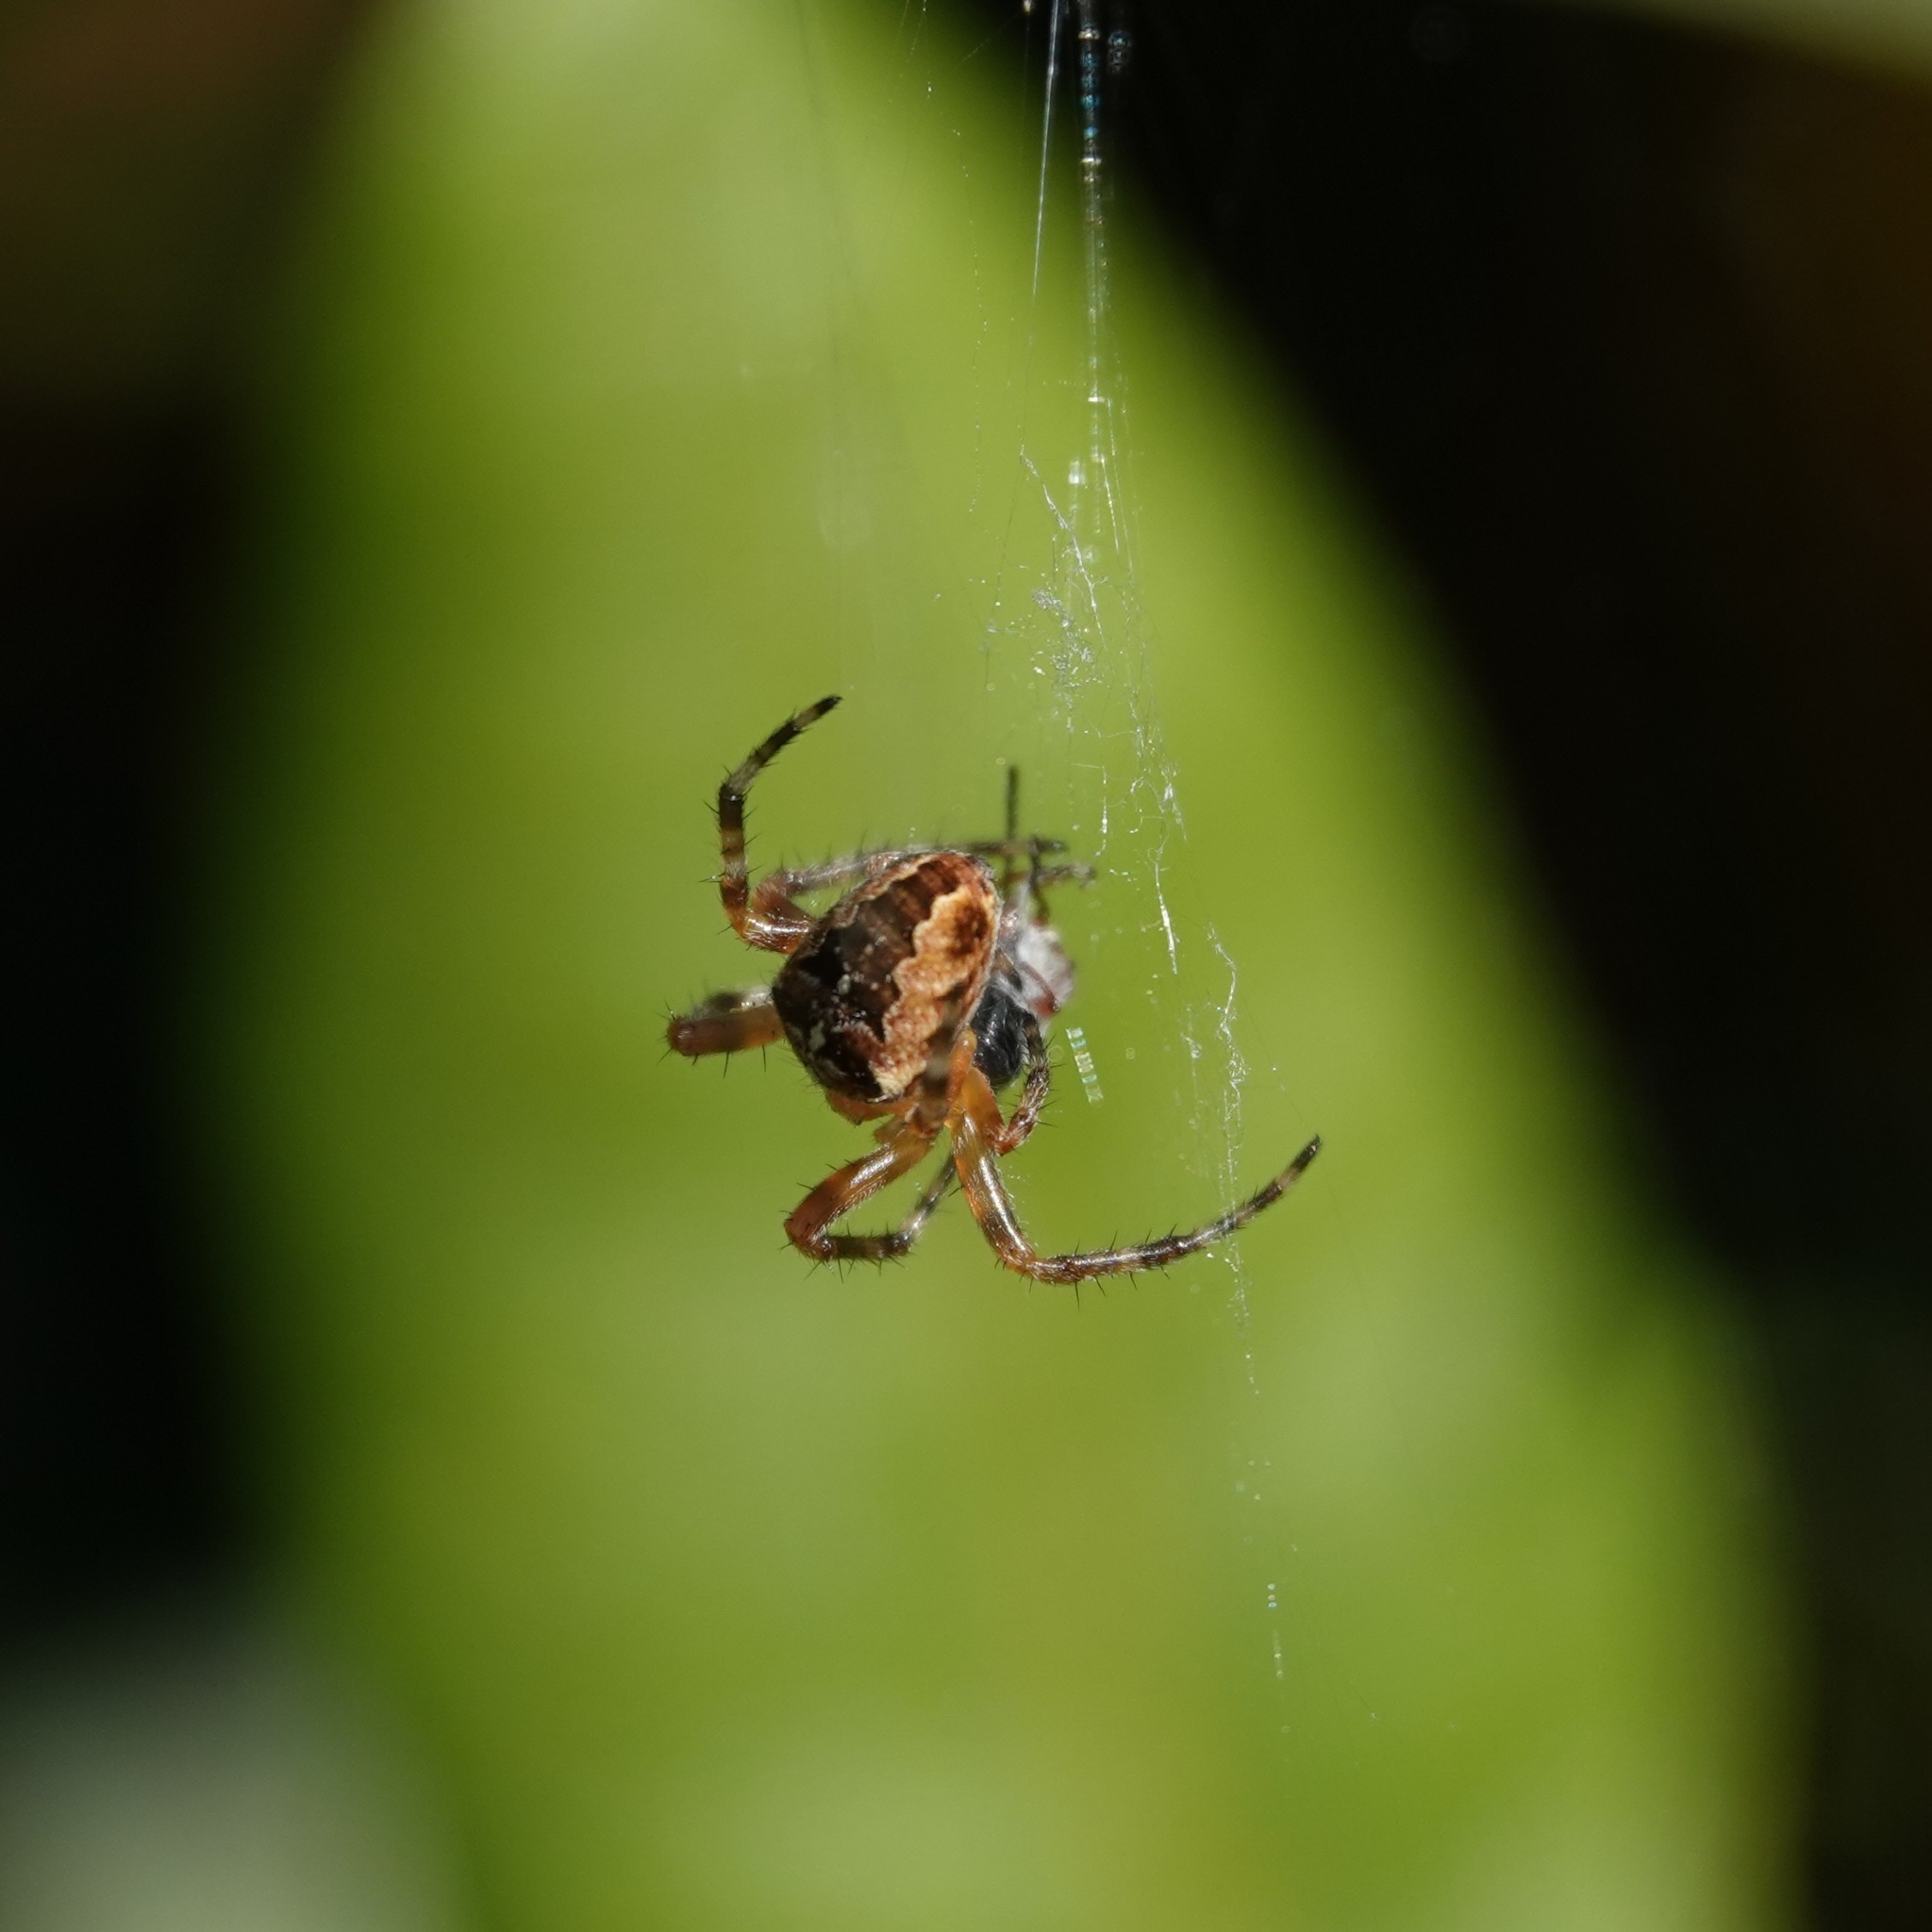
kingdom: Animalia
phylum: Arthropoda
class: Arachnida
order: Araneae
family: Araneidae
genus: Araneus
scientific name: Araneus diadematus
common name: Cross orbweaver
